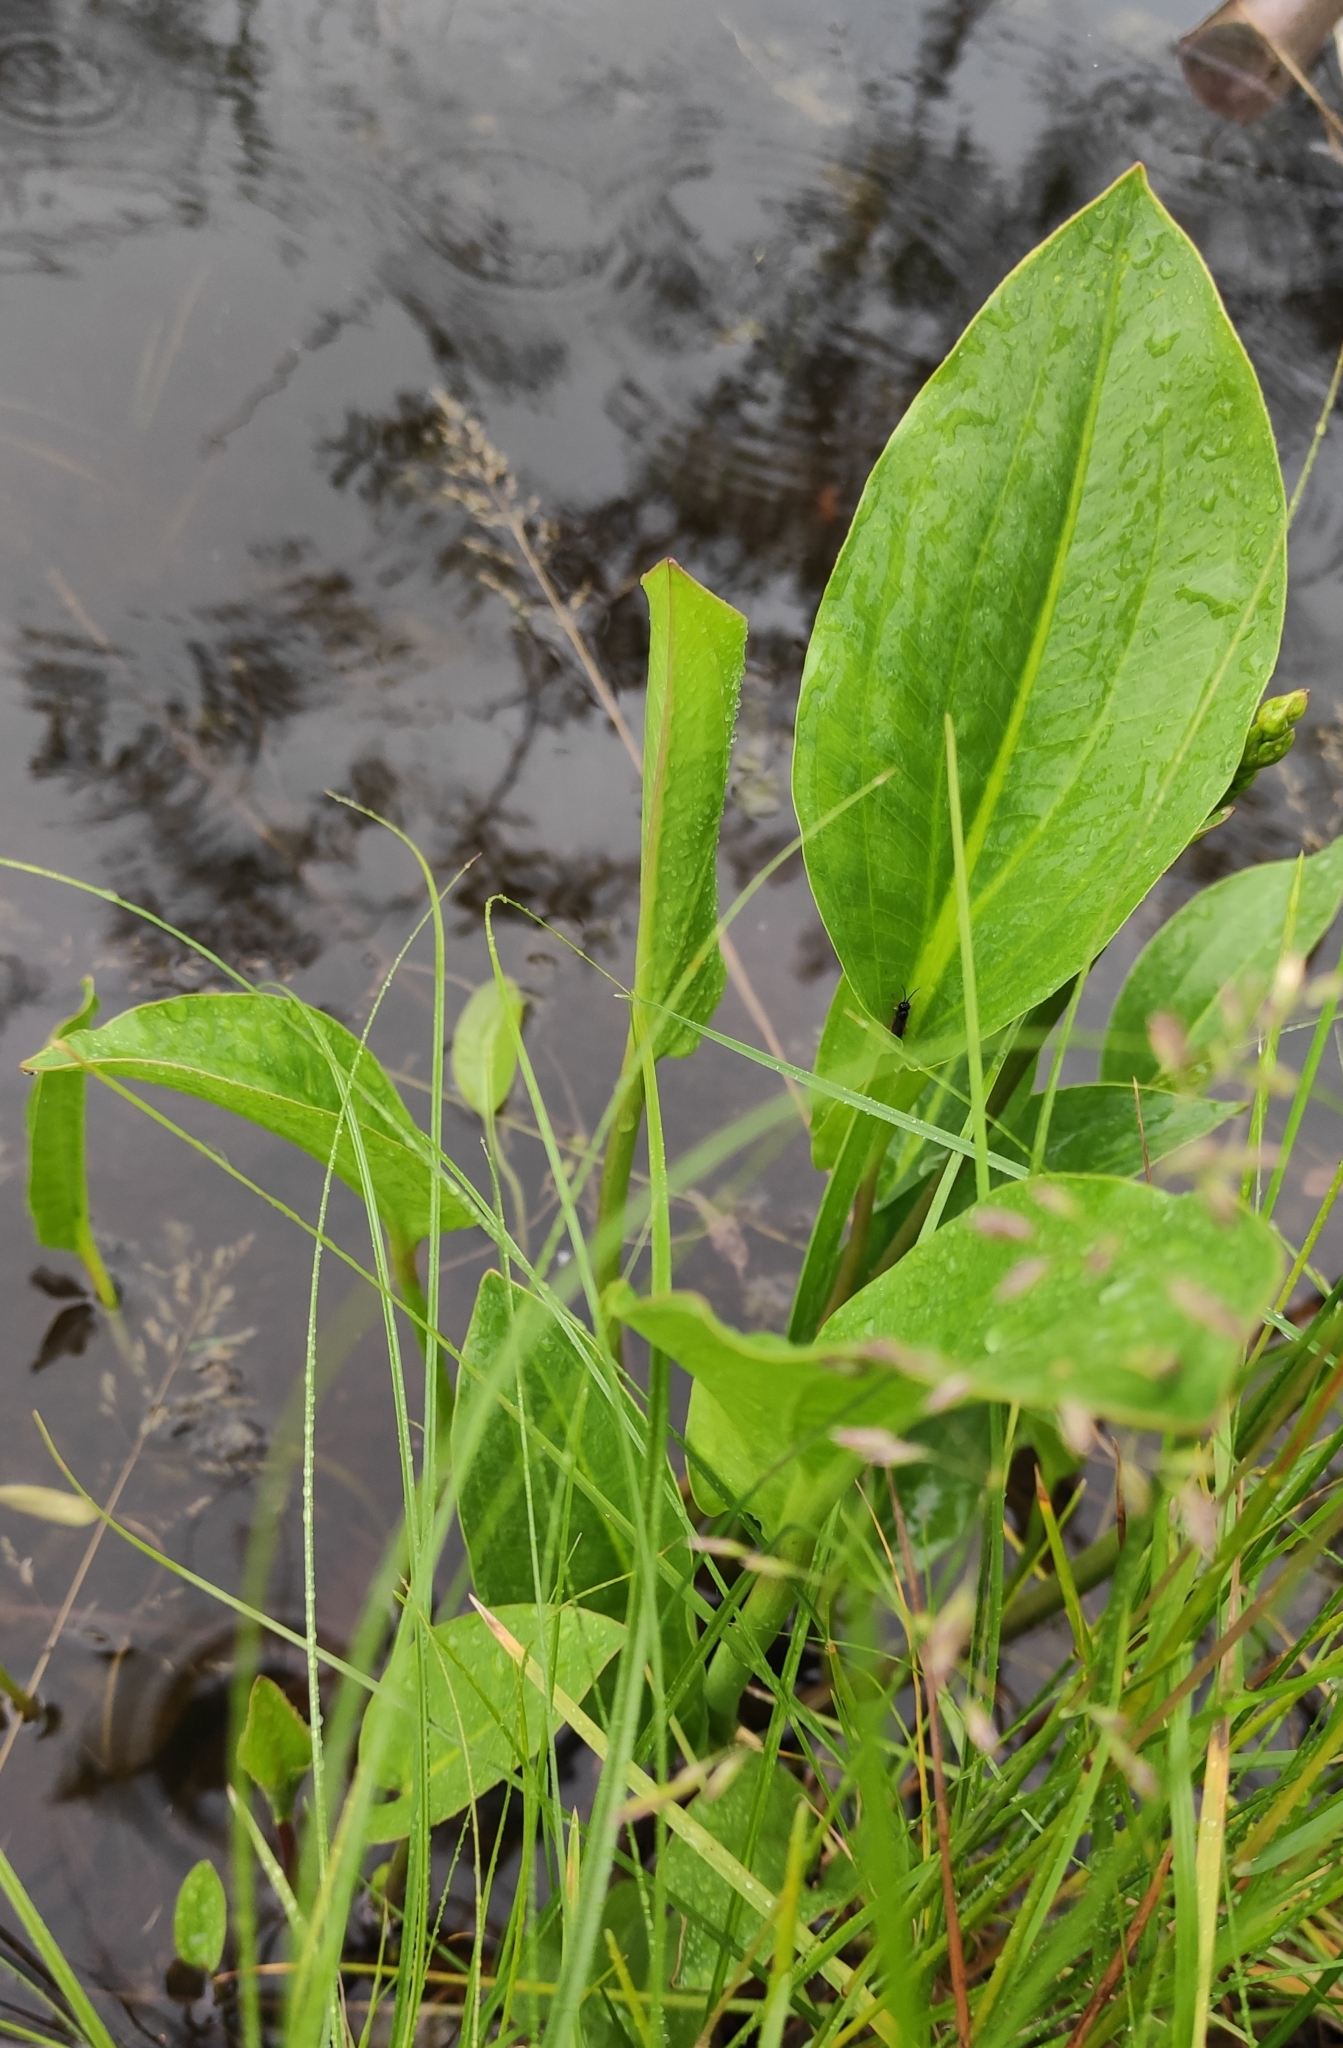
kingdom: Plantae
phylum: Tracheophyta
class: Liliopsida
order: Alismatales
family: Alismataceae
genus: Alisma
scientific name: Alisma plantago-aquatica
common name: Water-plantain
